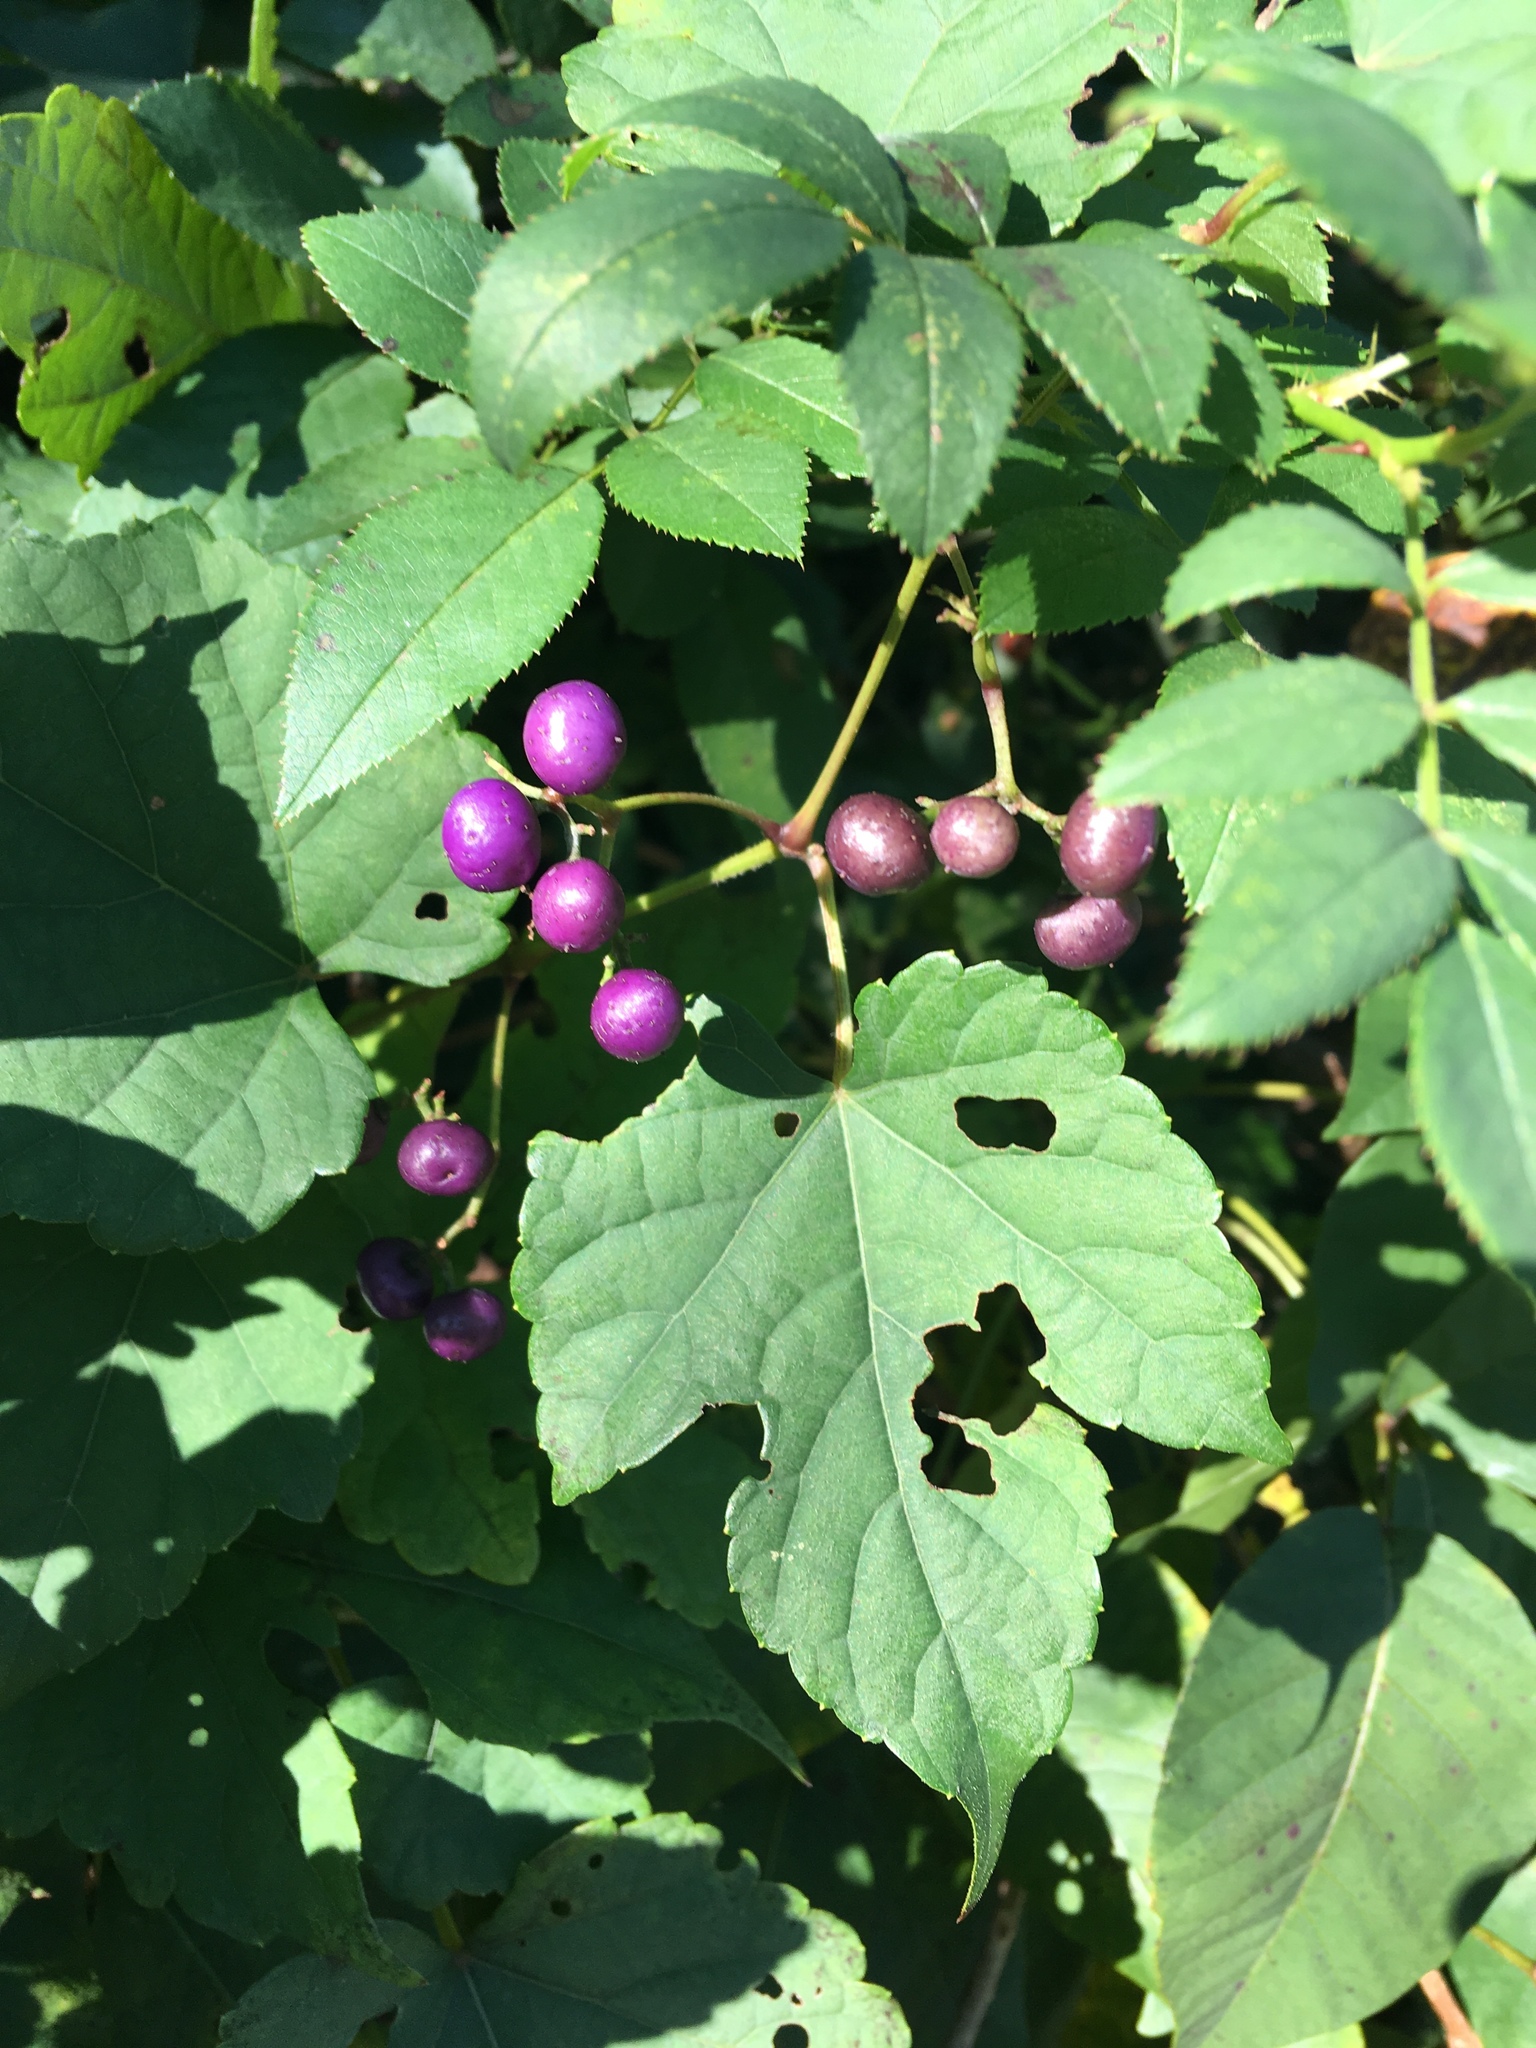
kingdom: Plantae
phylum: Tracheophyta
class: Magnoliopsida
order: Vitales
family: Vitaceae
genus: Ampelopsis
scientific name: Ampelopsis glandulosa
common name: Amur peppervine
